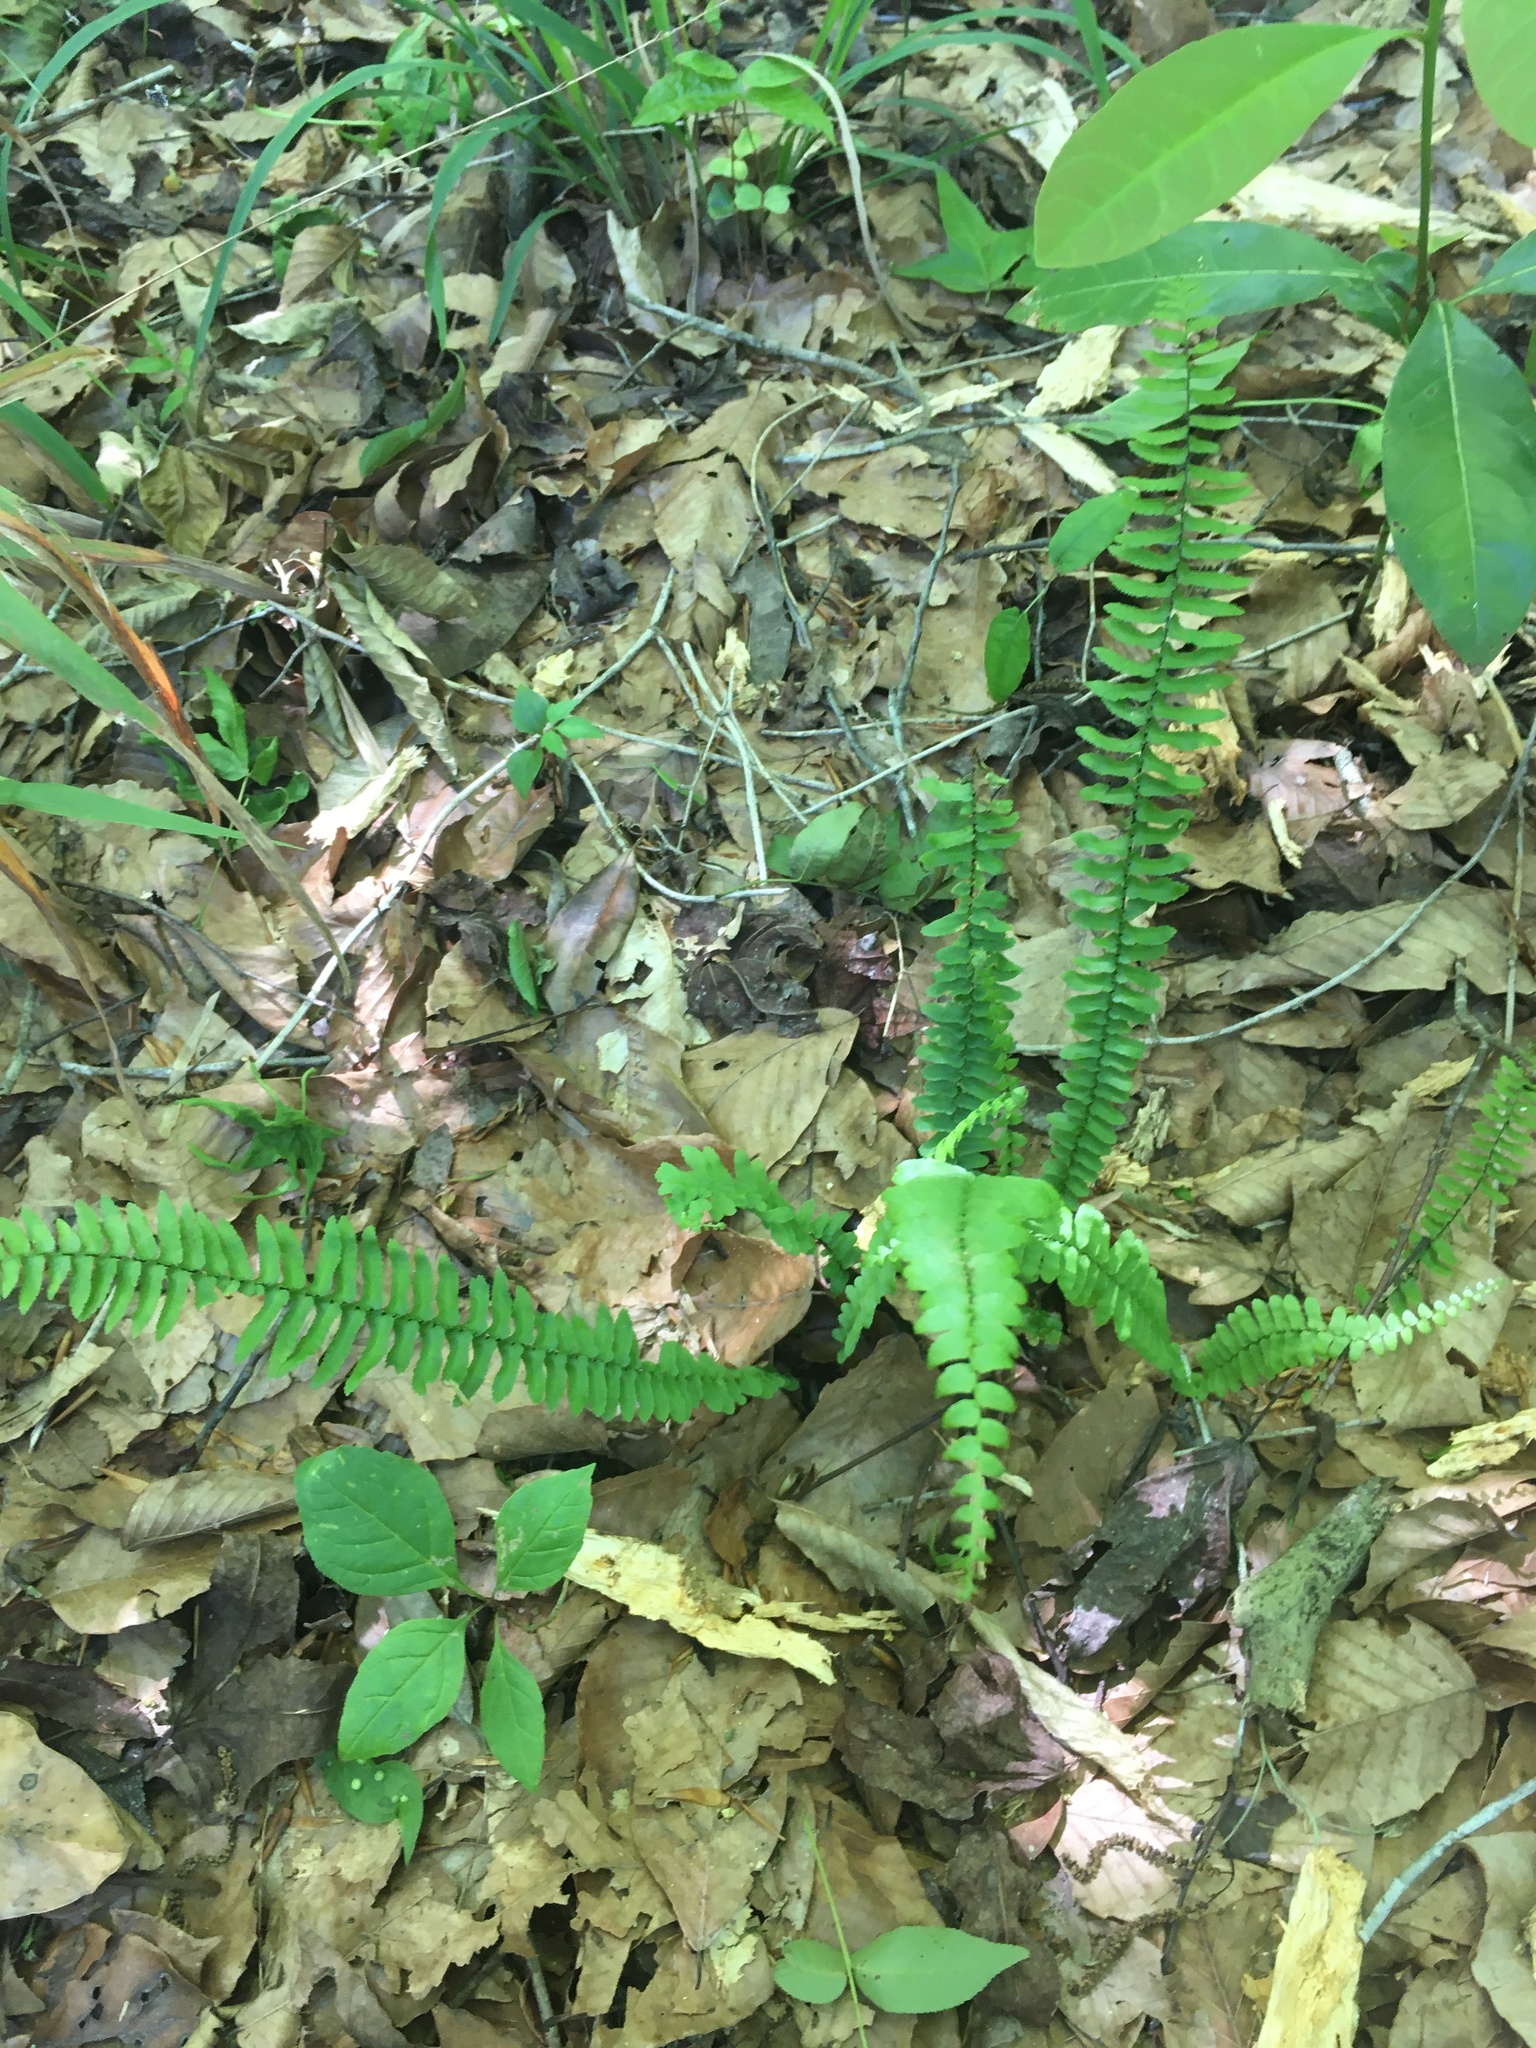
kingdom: Plantae
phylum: Tracheophyta
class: Polypodiopsida
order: Polypodiales
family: Aspleniaceae
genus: Asplenium
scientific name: Asplenium platyneuron
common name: Ebony spleenwort
